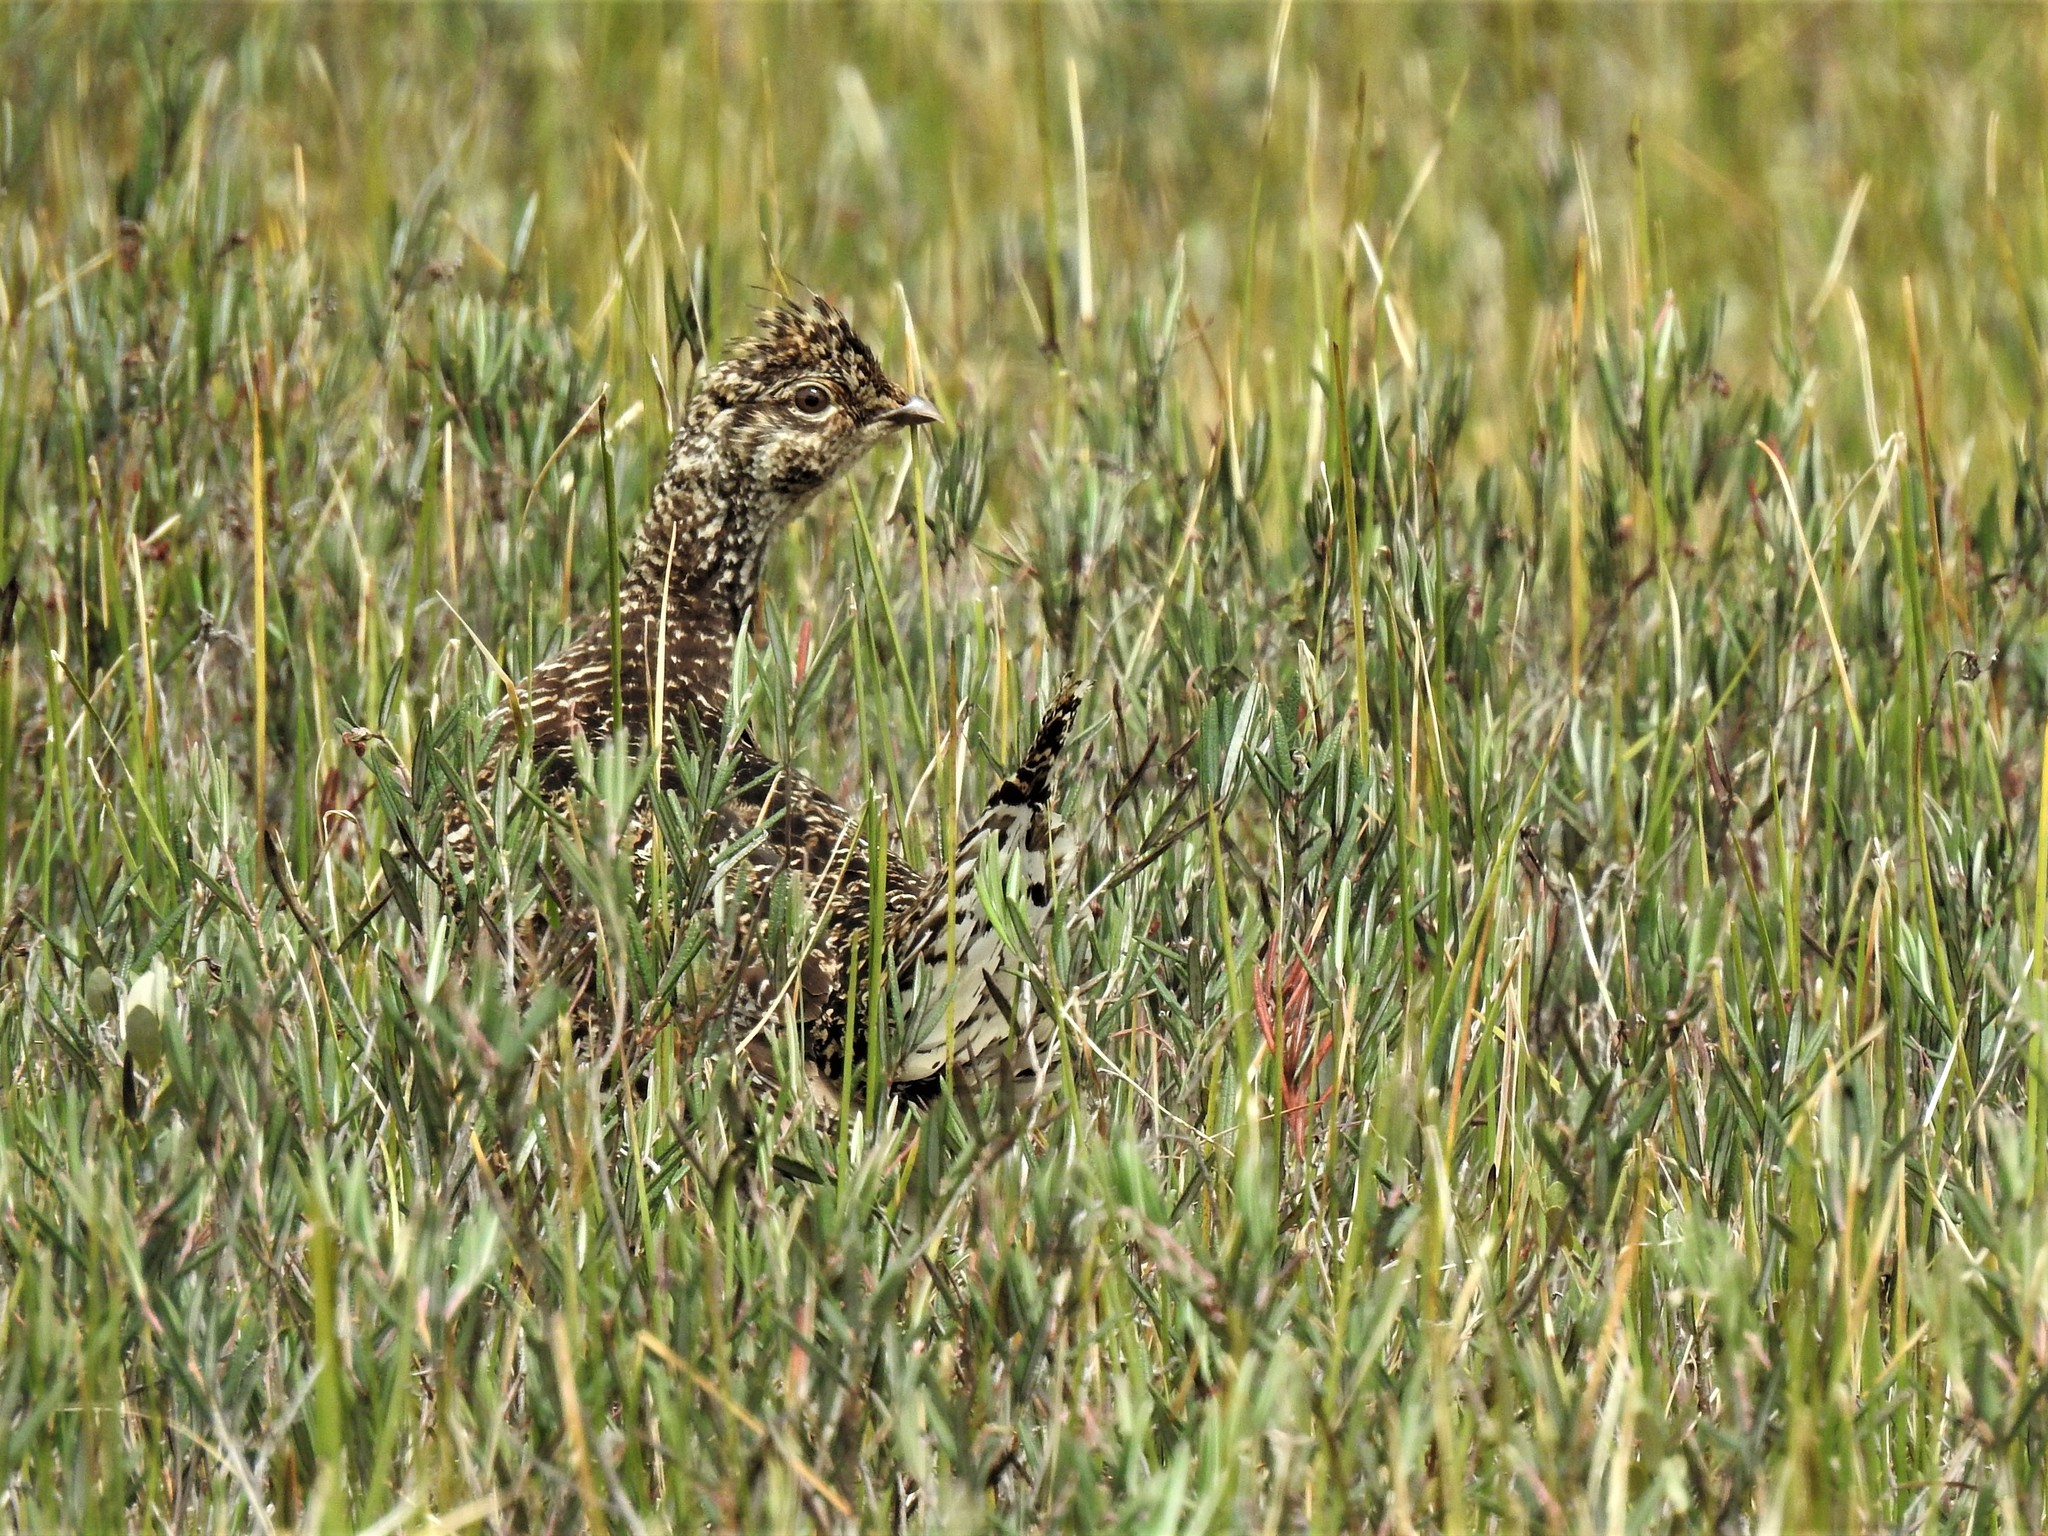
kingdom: Animalia
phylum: Chordata
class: Aves
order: Galliformes
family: Phasianidae
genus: Tympanuchus
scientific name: Tympanuchus phasianellus
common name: Sharp-tailed grouse
